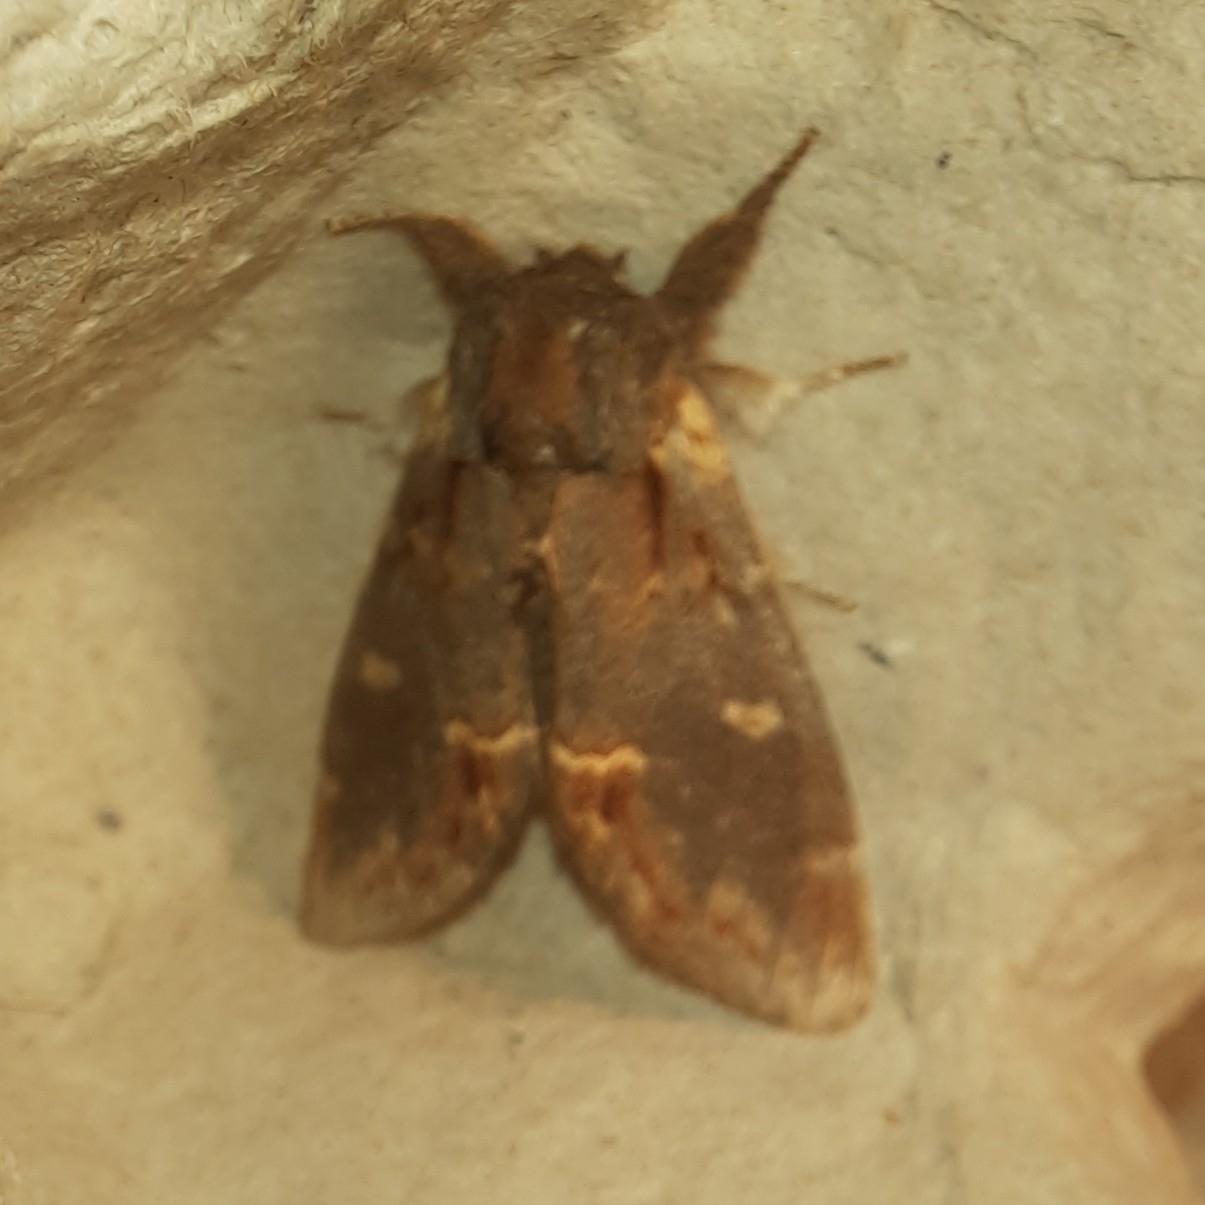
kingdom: Animalia
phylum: Arthropoda
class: Insecta
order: Lepidoptera
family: Notodontidae
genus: Notodonta
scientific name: Notodonta dromedarius
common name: Iron prominent
